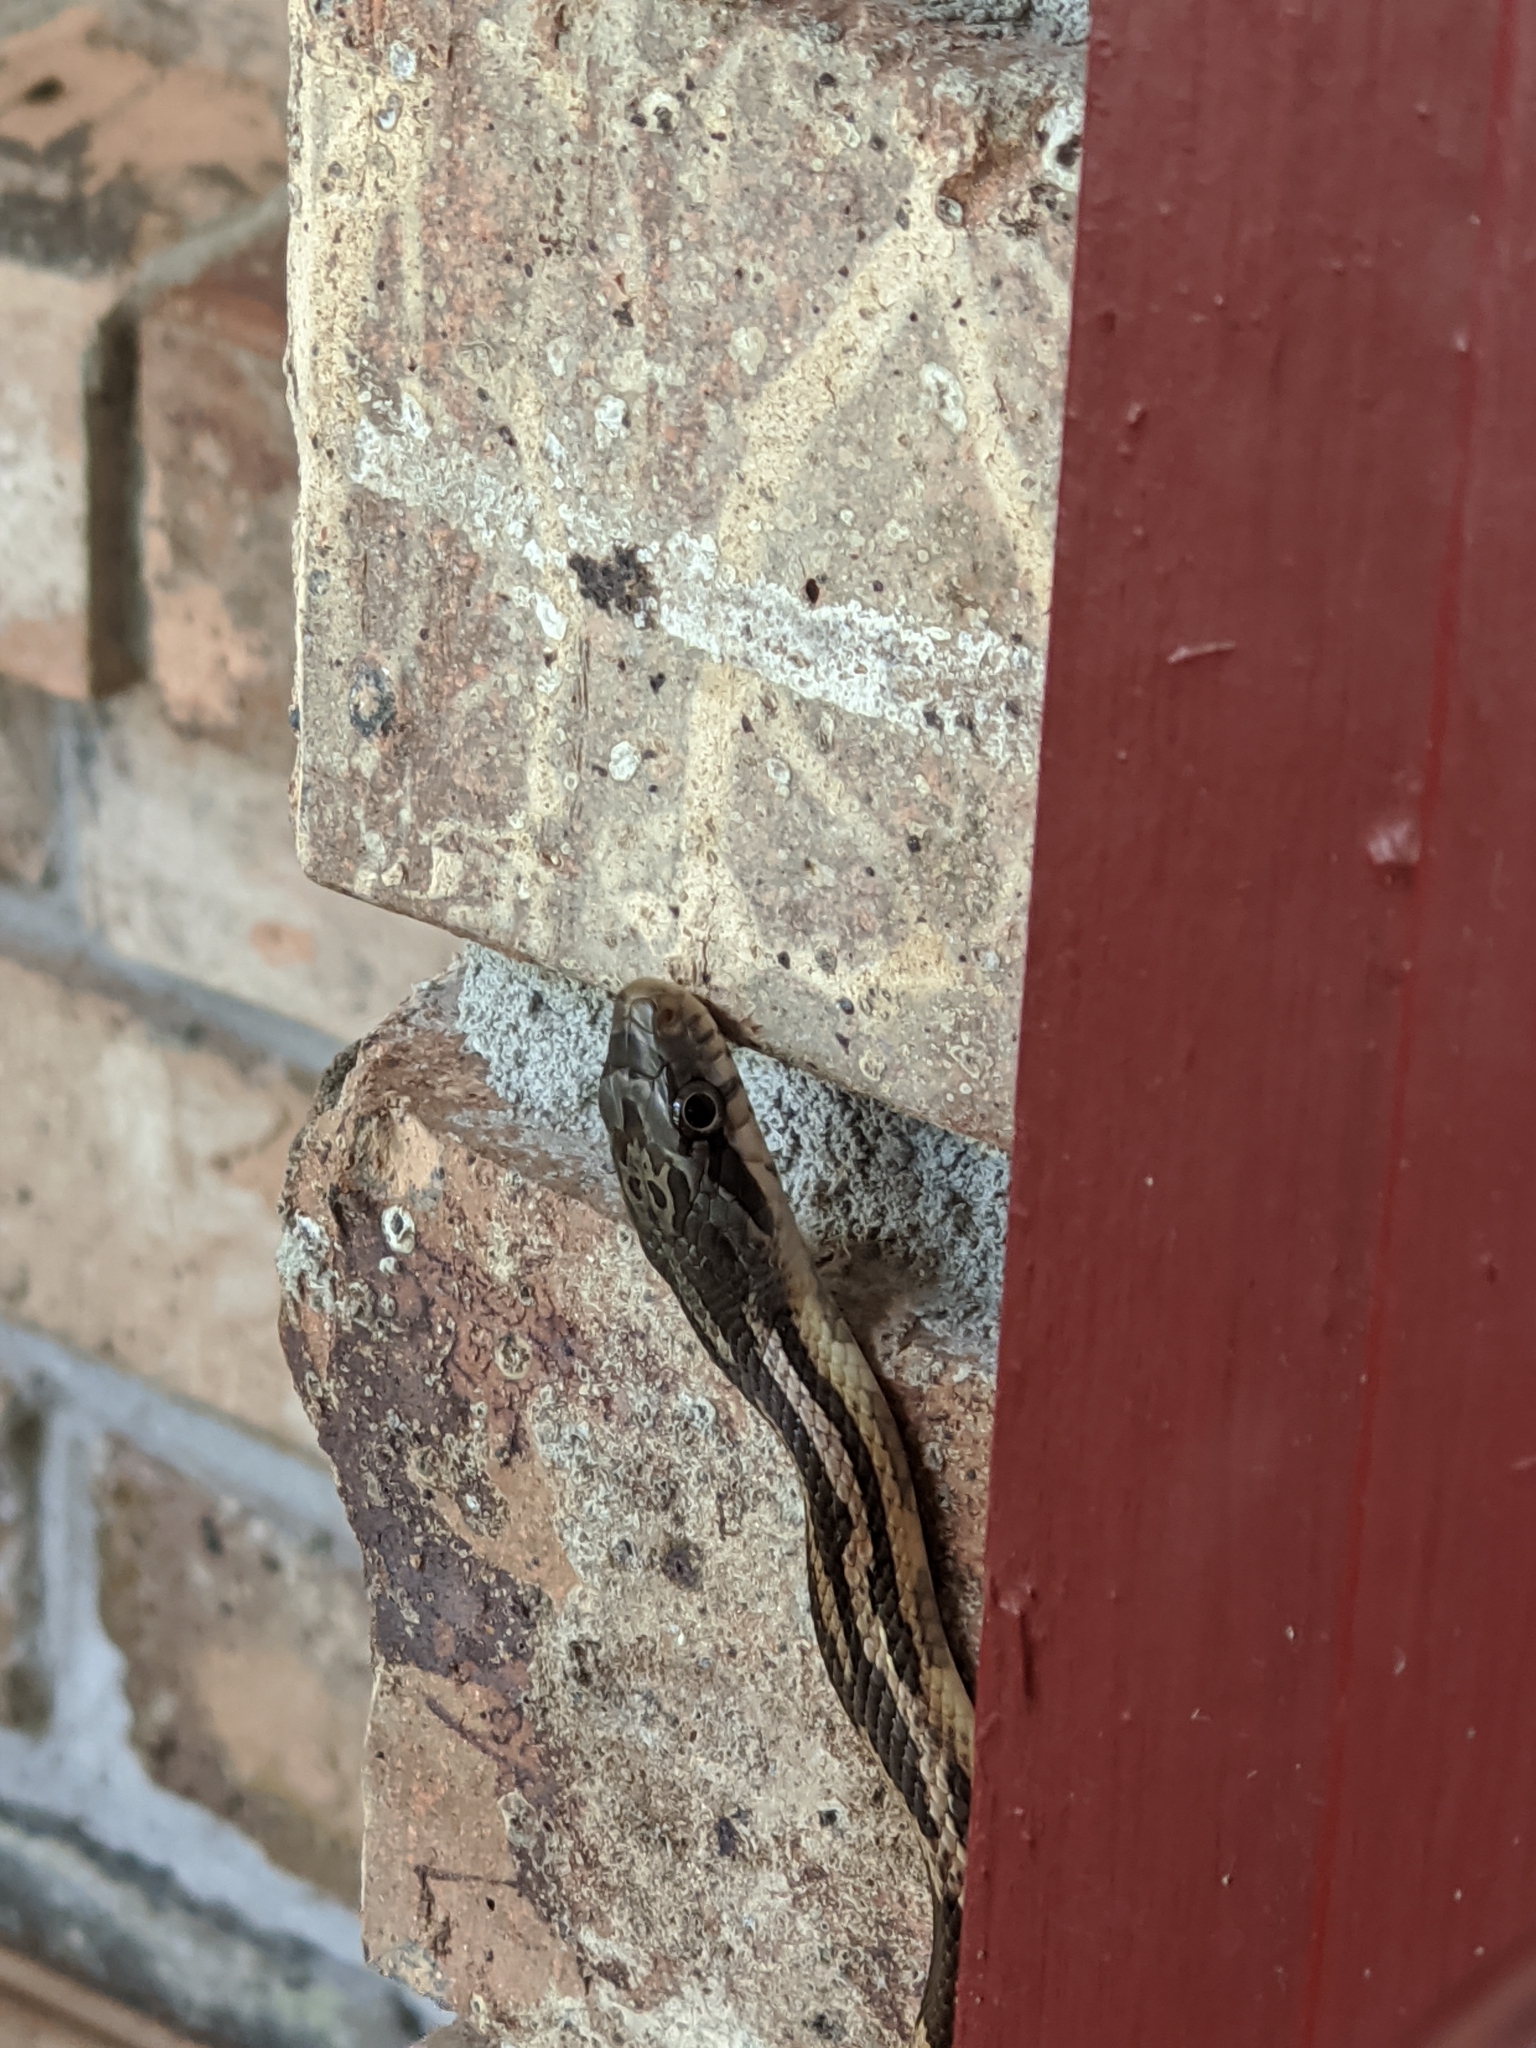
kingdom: Animalia
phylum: Chordata
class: Squamata
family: Colubridae
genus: Pantherophis
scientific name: Pantherophis spiloides
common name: Gray rat snake
